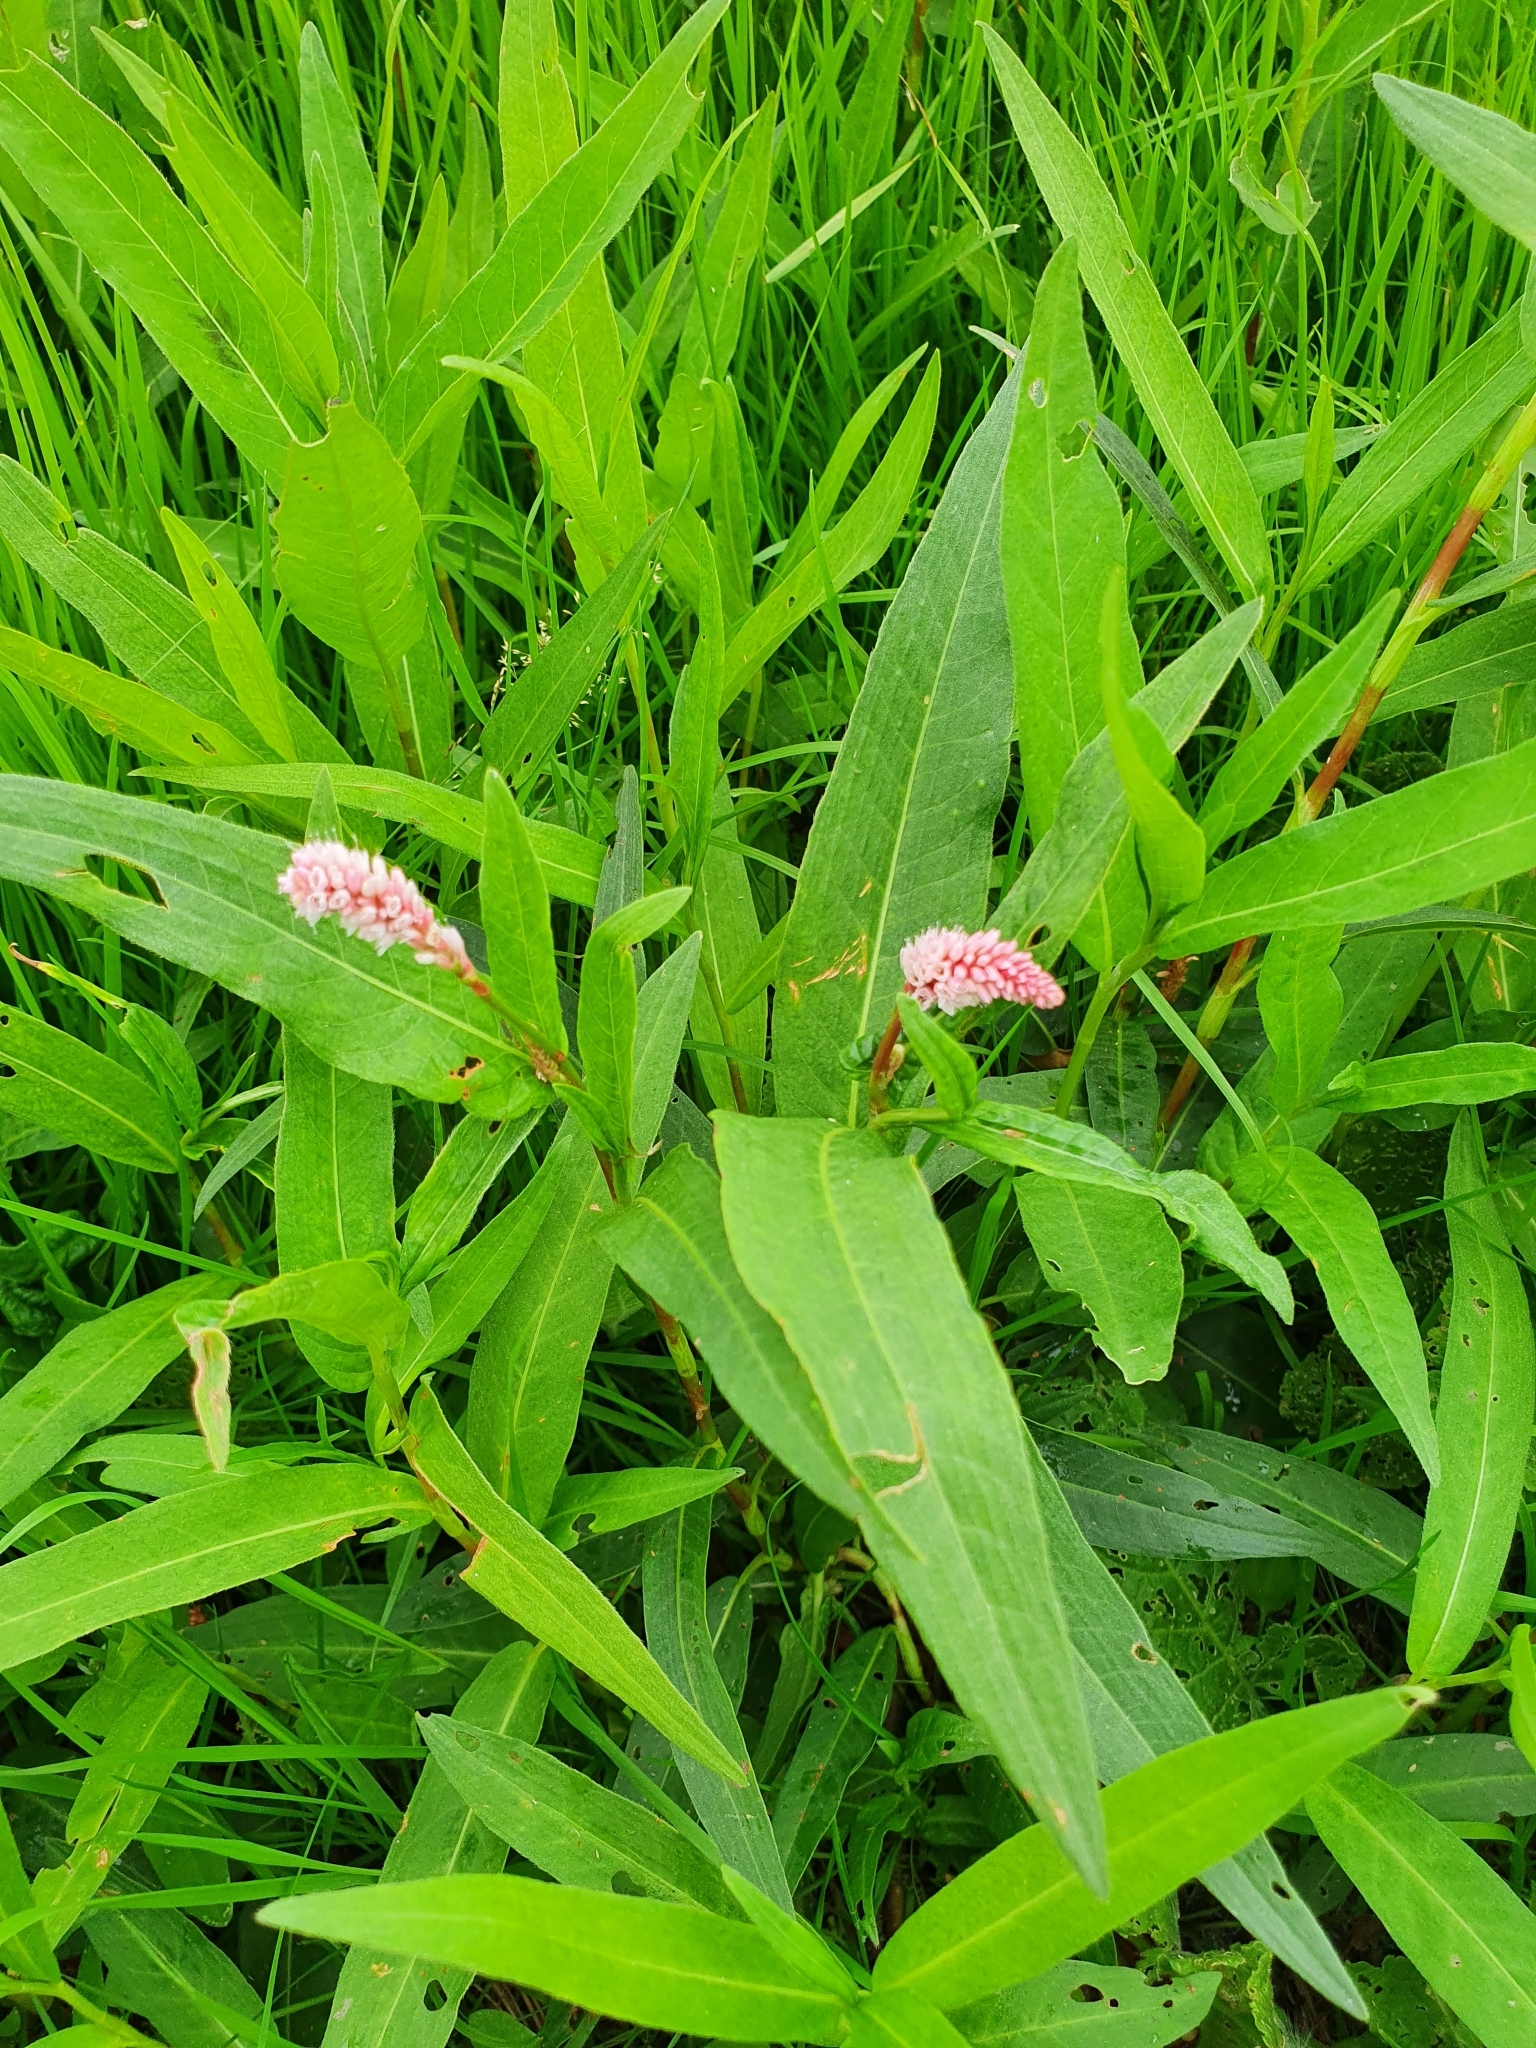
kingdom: Plantae
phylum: Tracheophyta
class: Magnoliopsida
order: Caryophyllales
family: Polygonaceae
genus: Persicaria
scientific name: Persicaria amphibia
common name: Amphibious bistort
